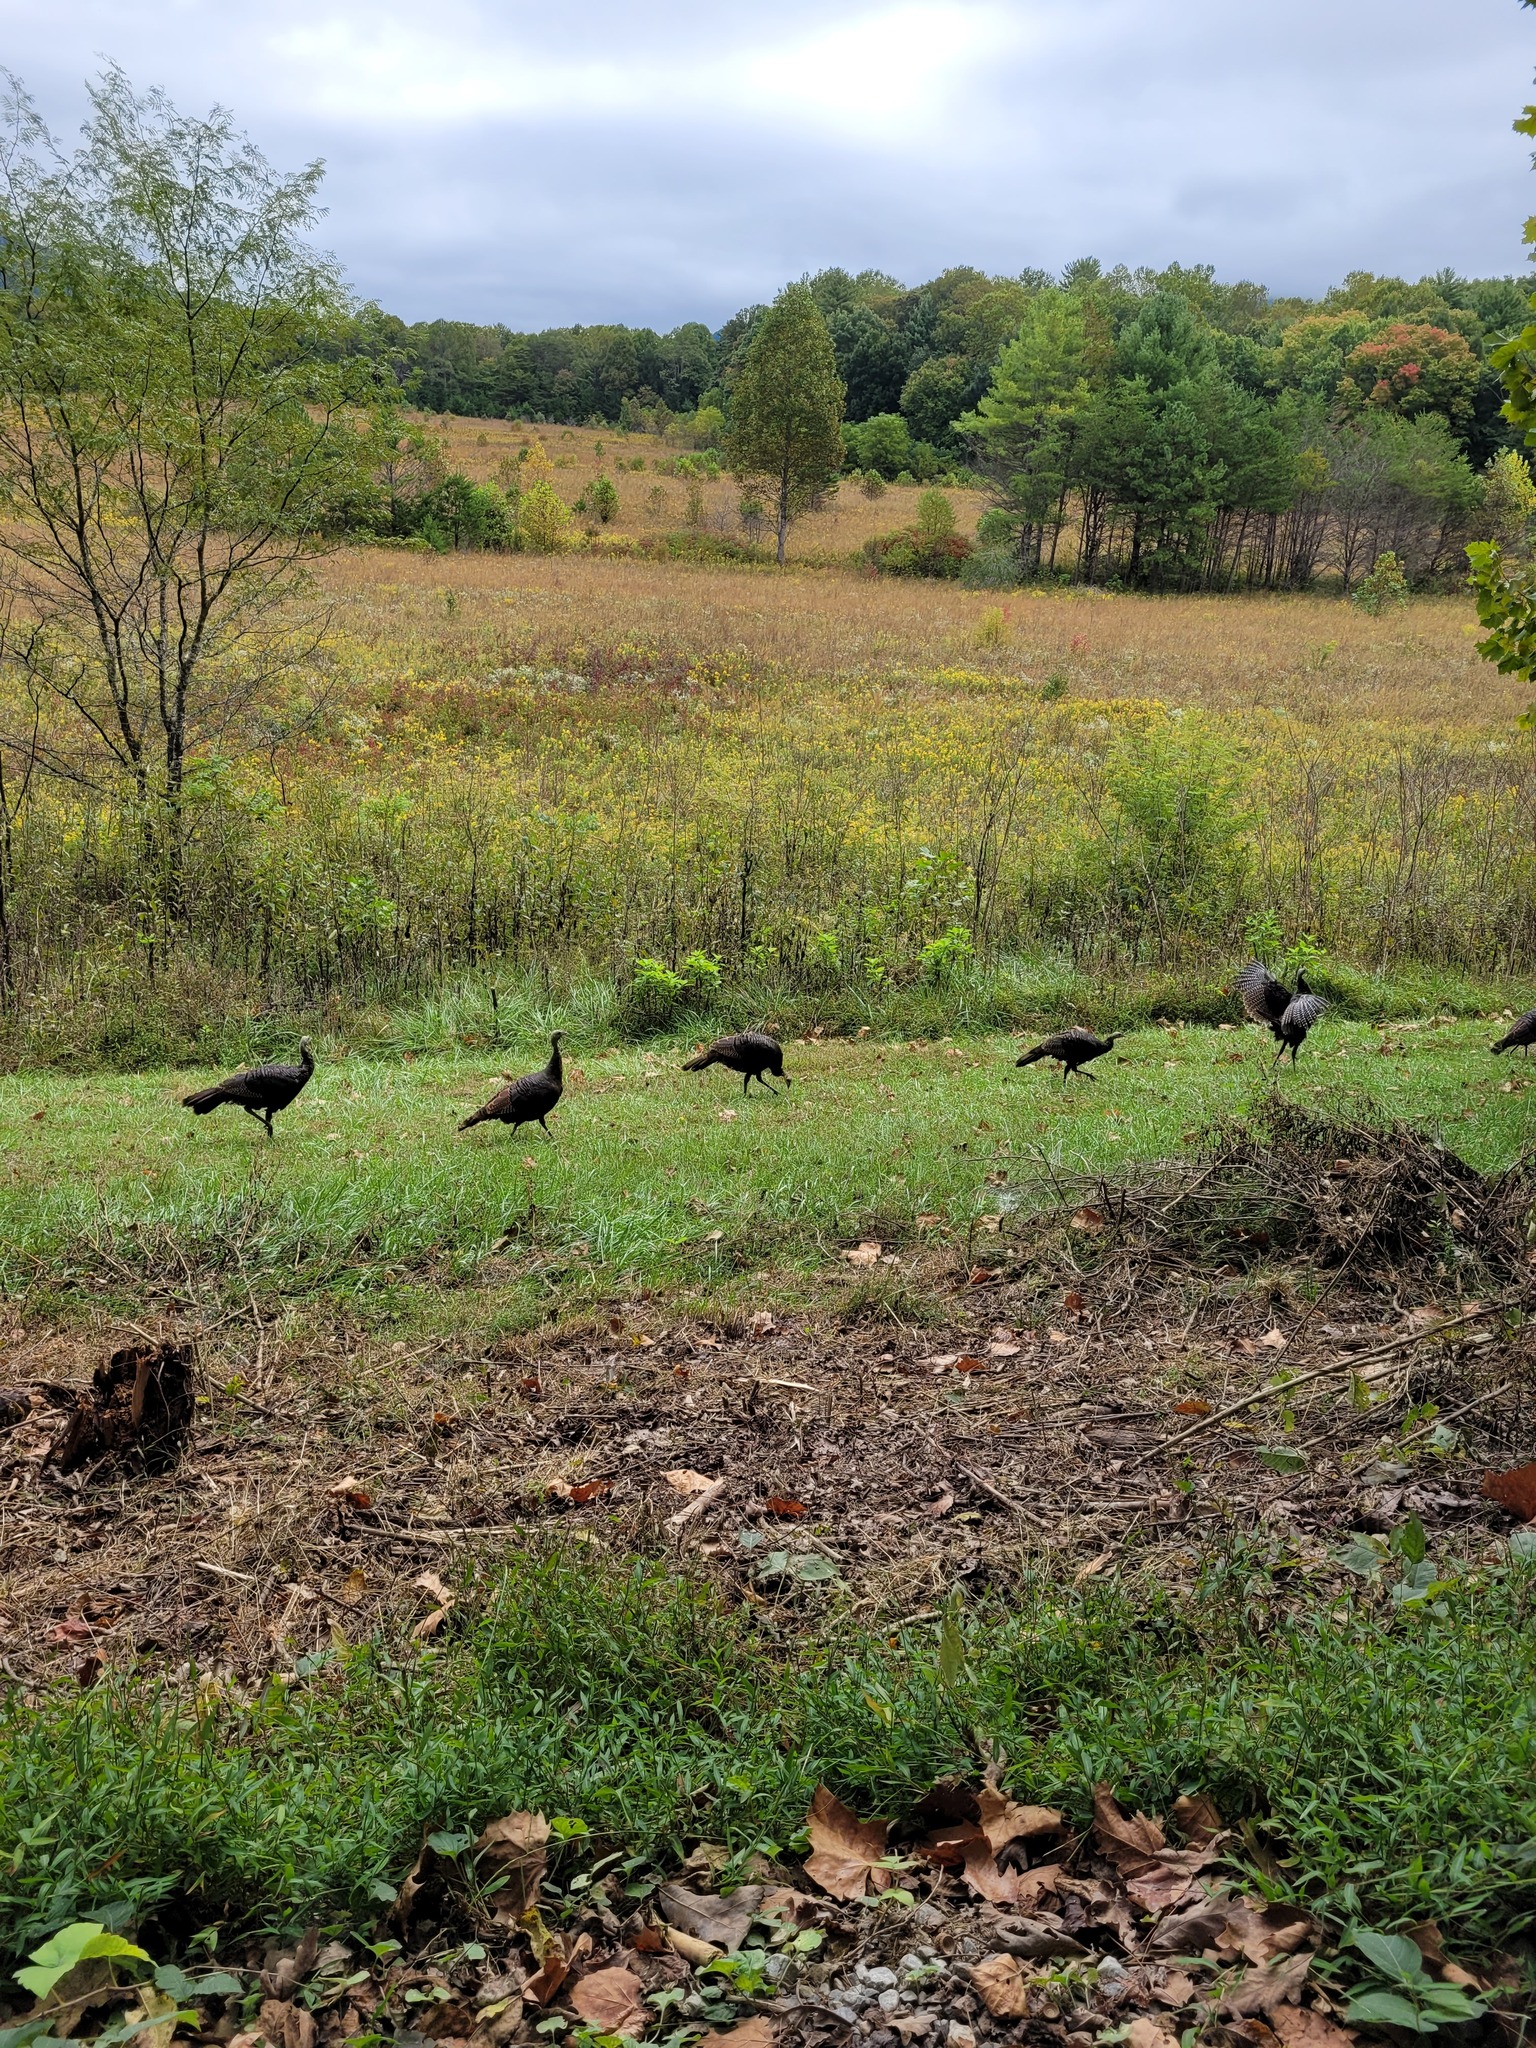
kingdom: Animalia
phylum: Chordata
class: Aves
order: Galliformes
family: Phasianidae
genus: Meleagris
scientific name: Meleagris gallopavo
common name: Wild turkey
